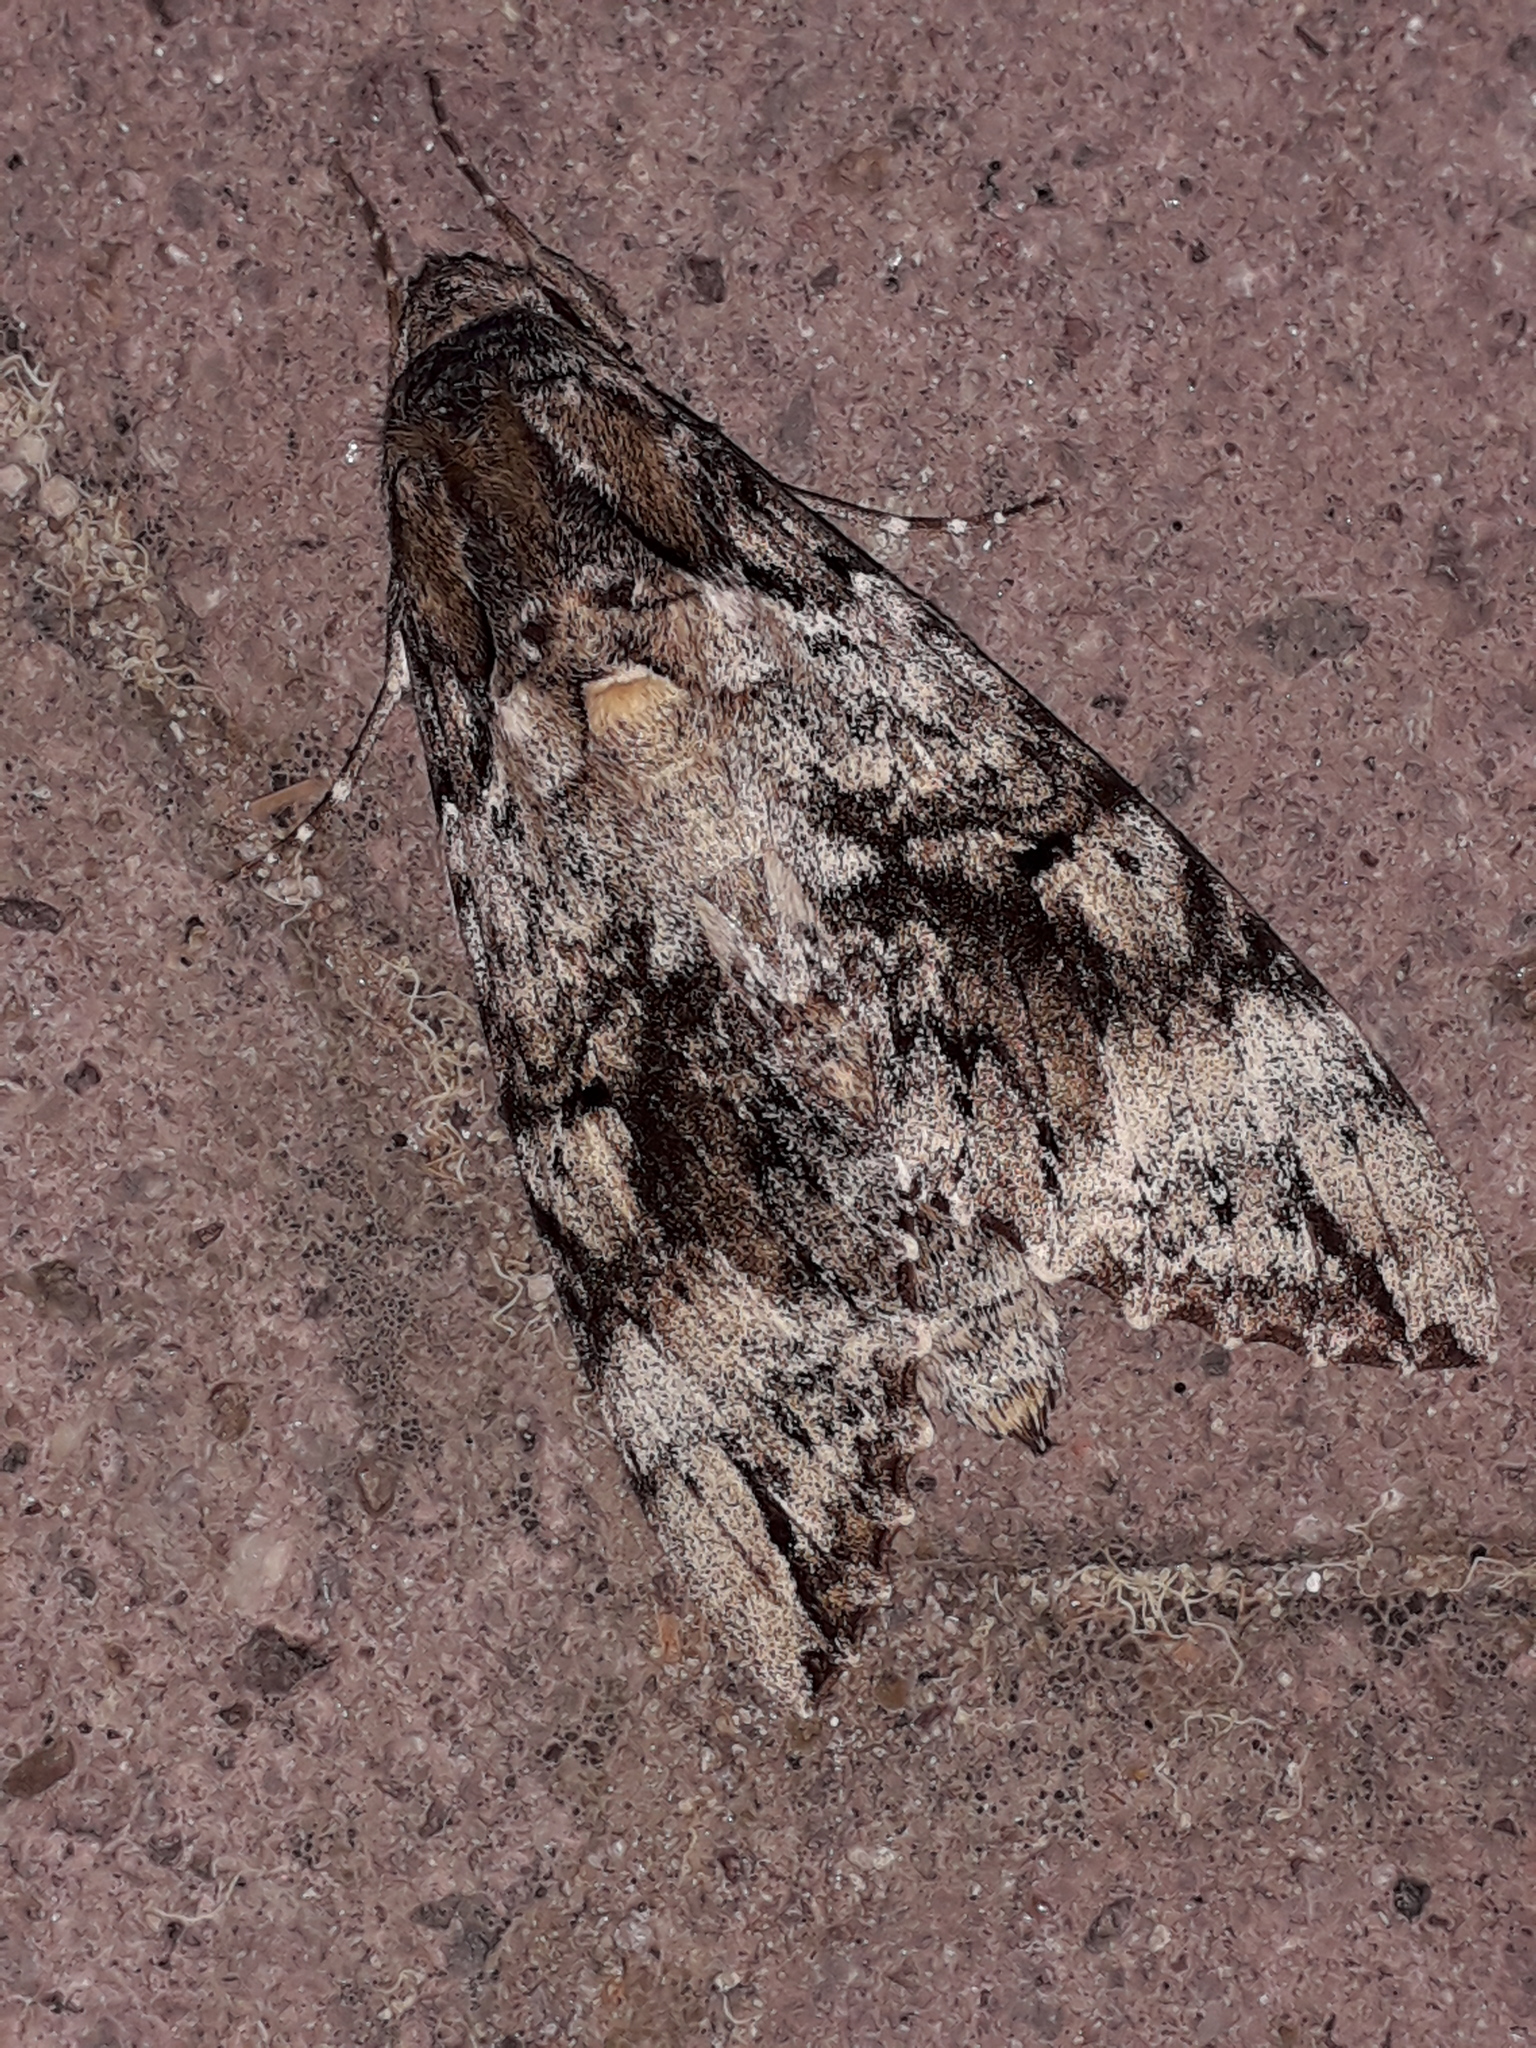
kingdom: Animalia
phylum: Arthropoda
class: Insecta
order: Lepidoptera
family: Sphingidae
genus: Pseudosphinx
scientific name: Pseudosphinx tetrio
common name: Tetrio sphinx
